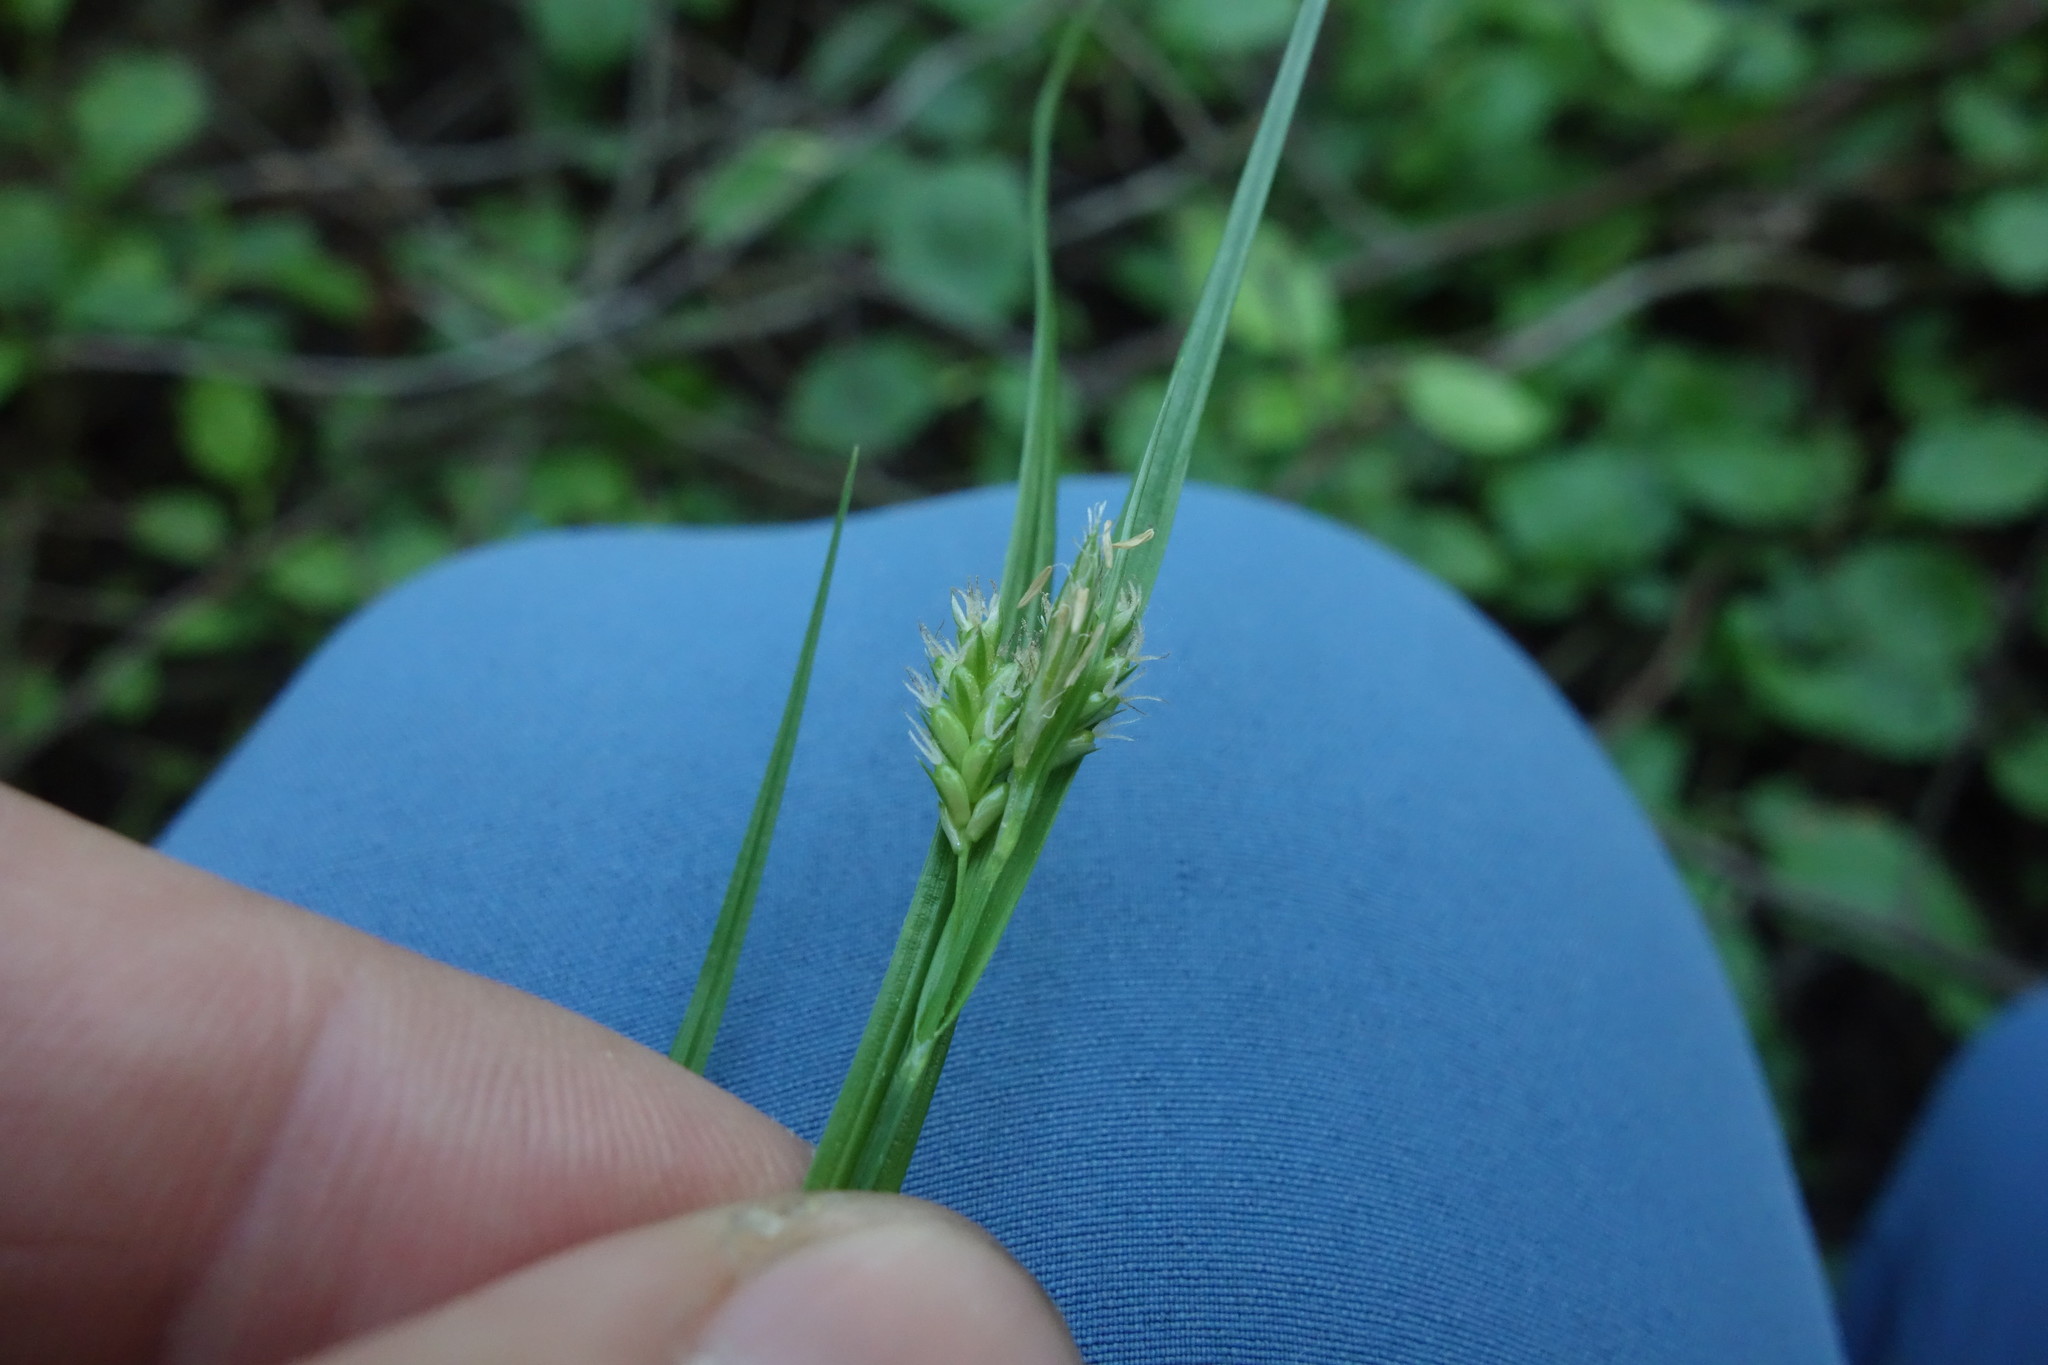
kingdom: Plantae
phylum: Tracheophyta
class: Liliopsida
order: Poales
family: Cyperaceae
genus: Carex
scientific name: Carex pallescens
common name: Pale sedge
